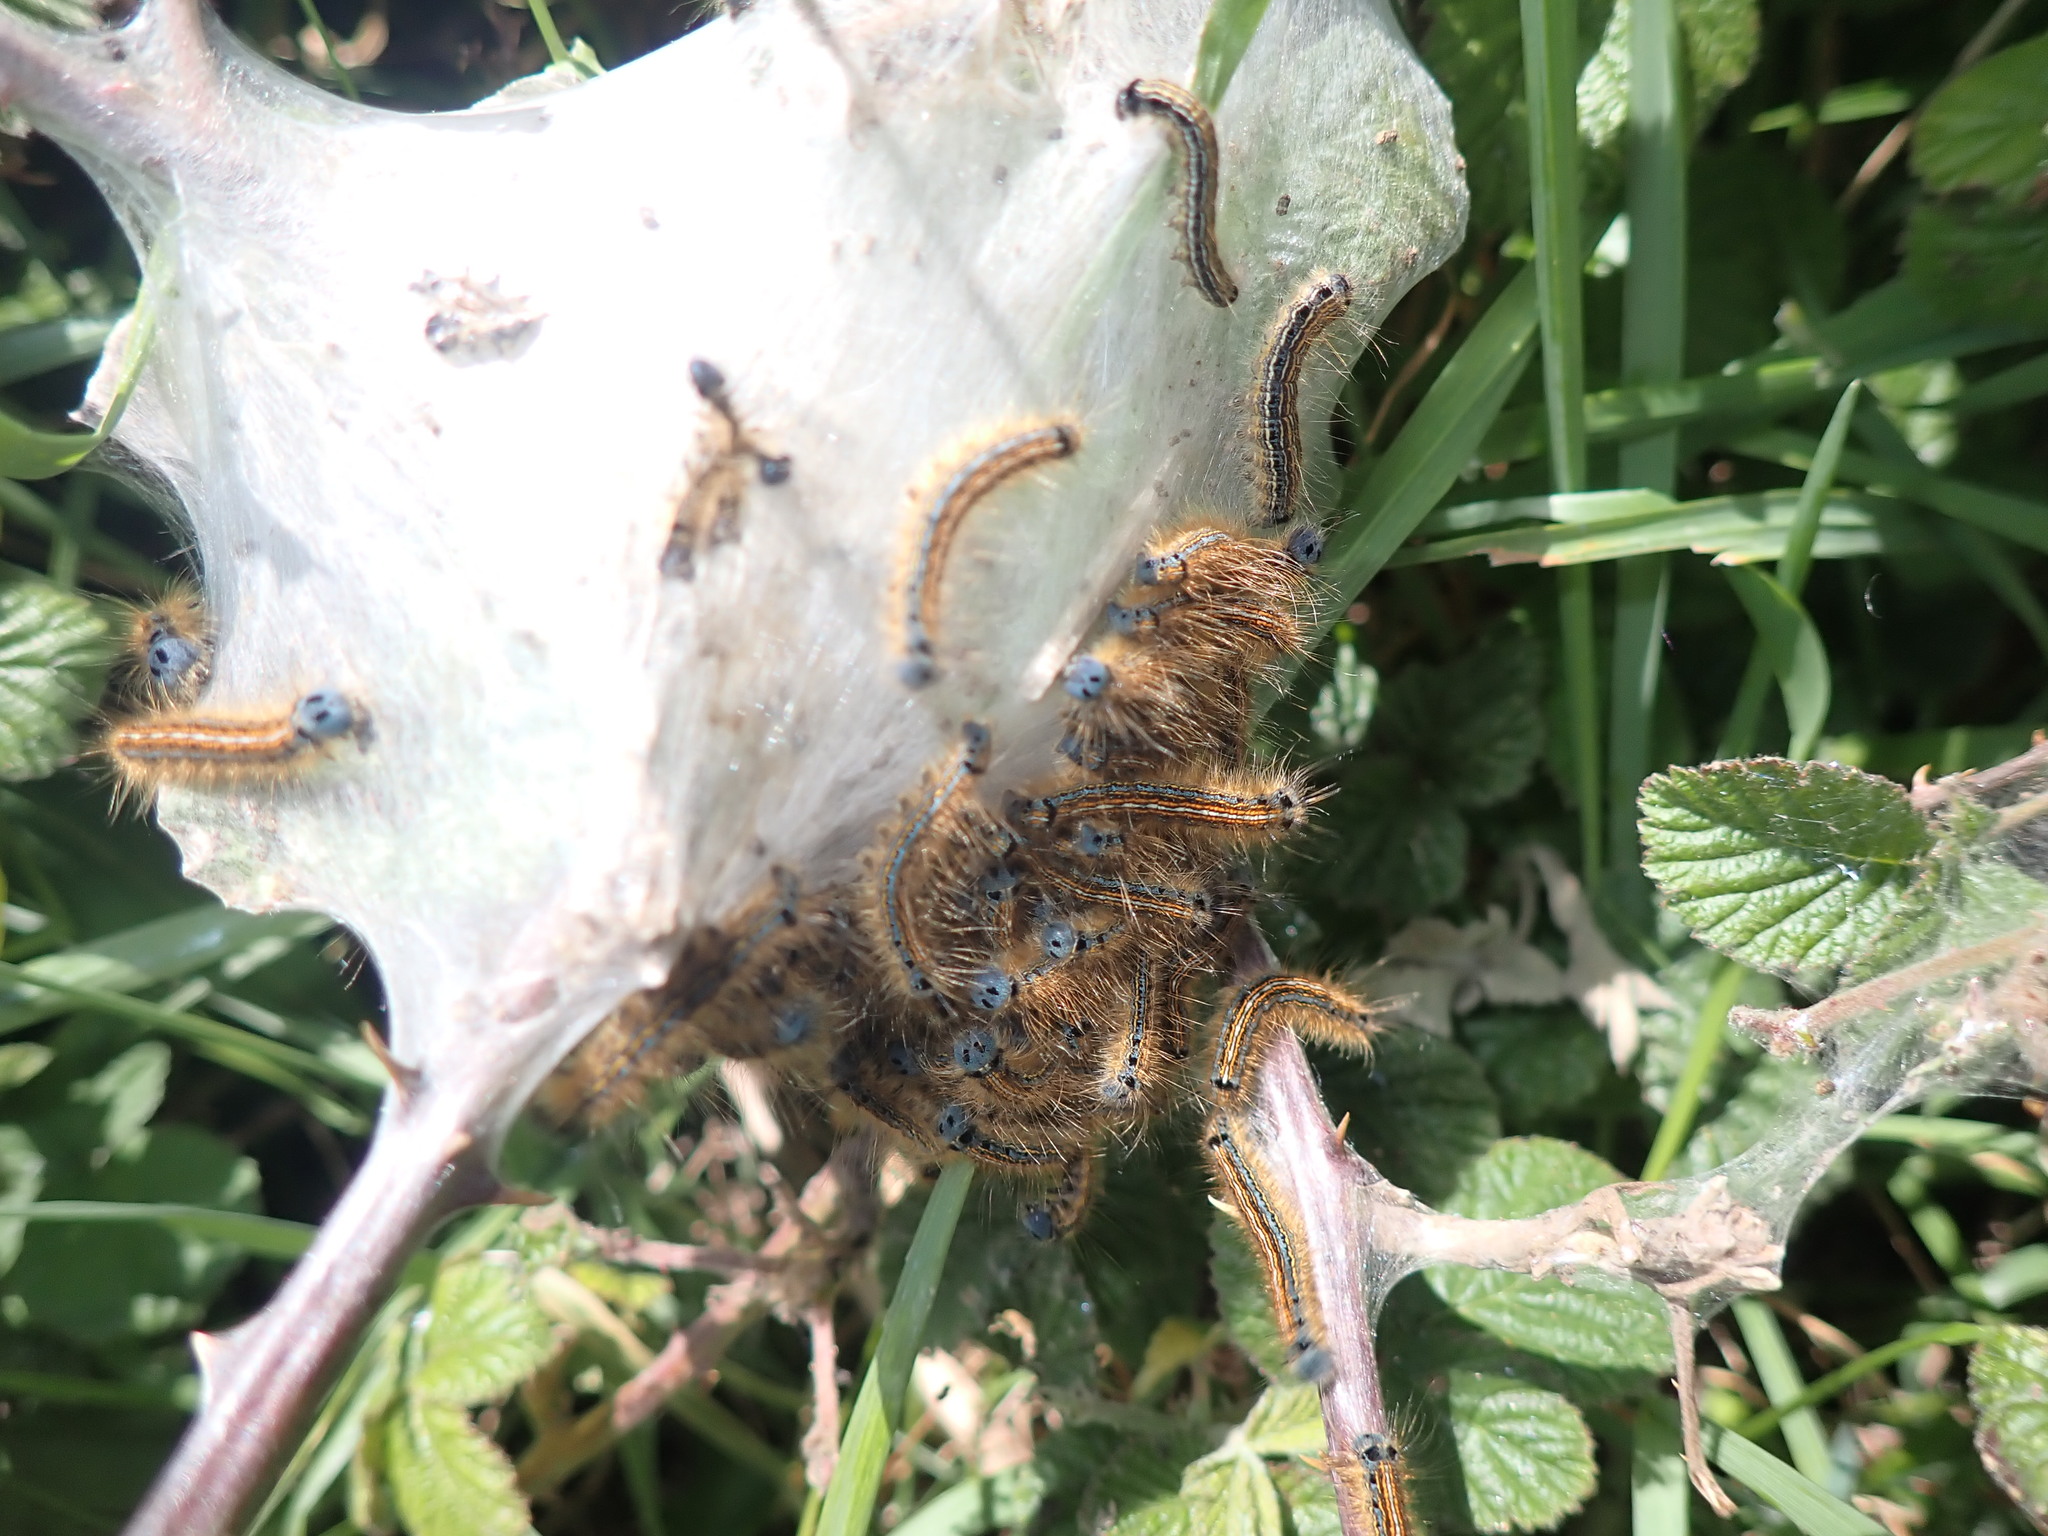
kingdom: Animalia
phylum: Arthropoda
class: Insecta
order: Lepidoptera
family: Lasiocampidae
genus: Malacosoma
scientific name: Malacosoma neustria
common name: The lackey
